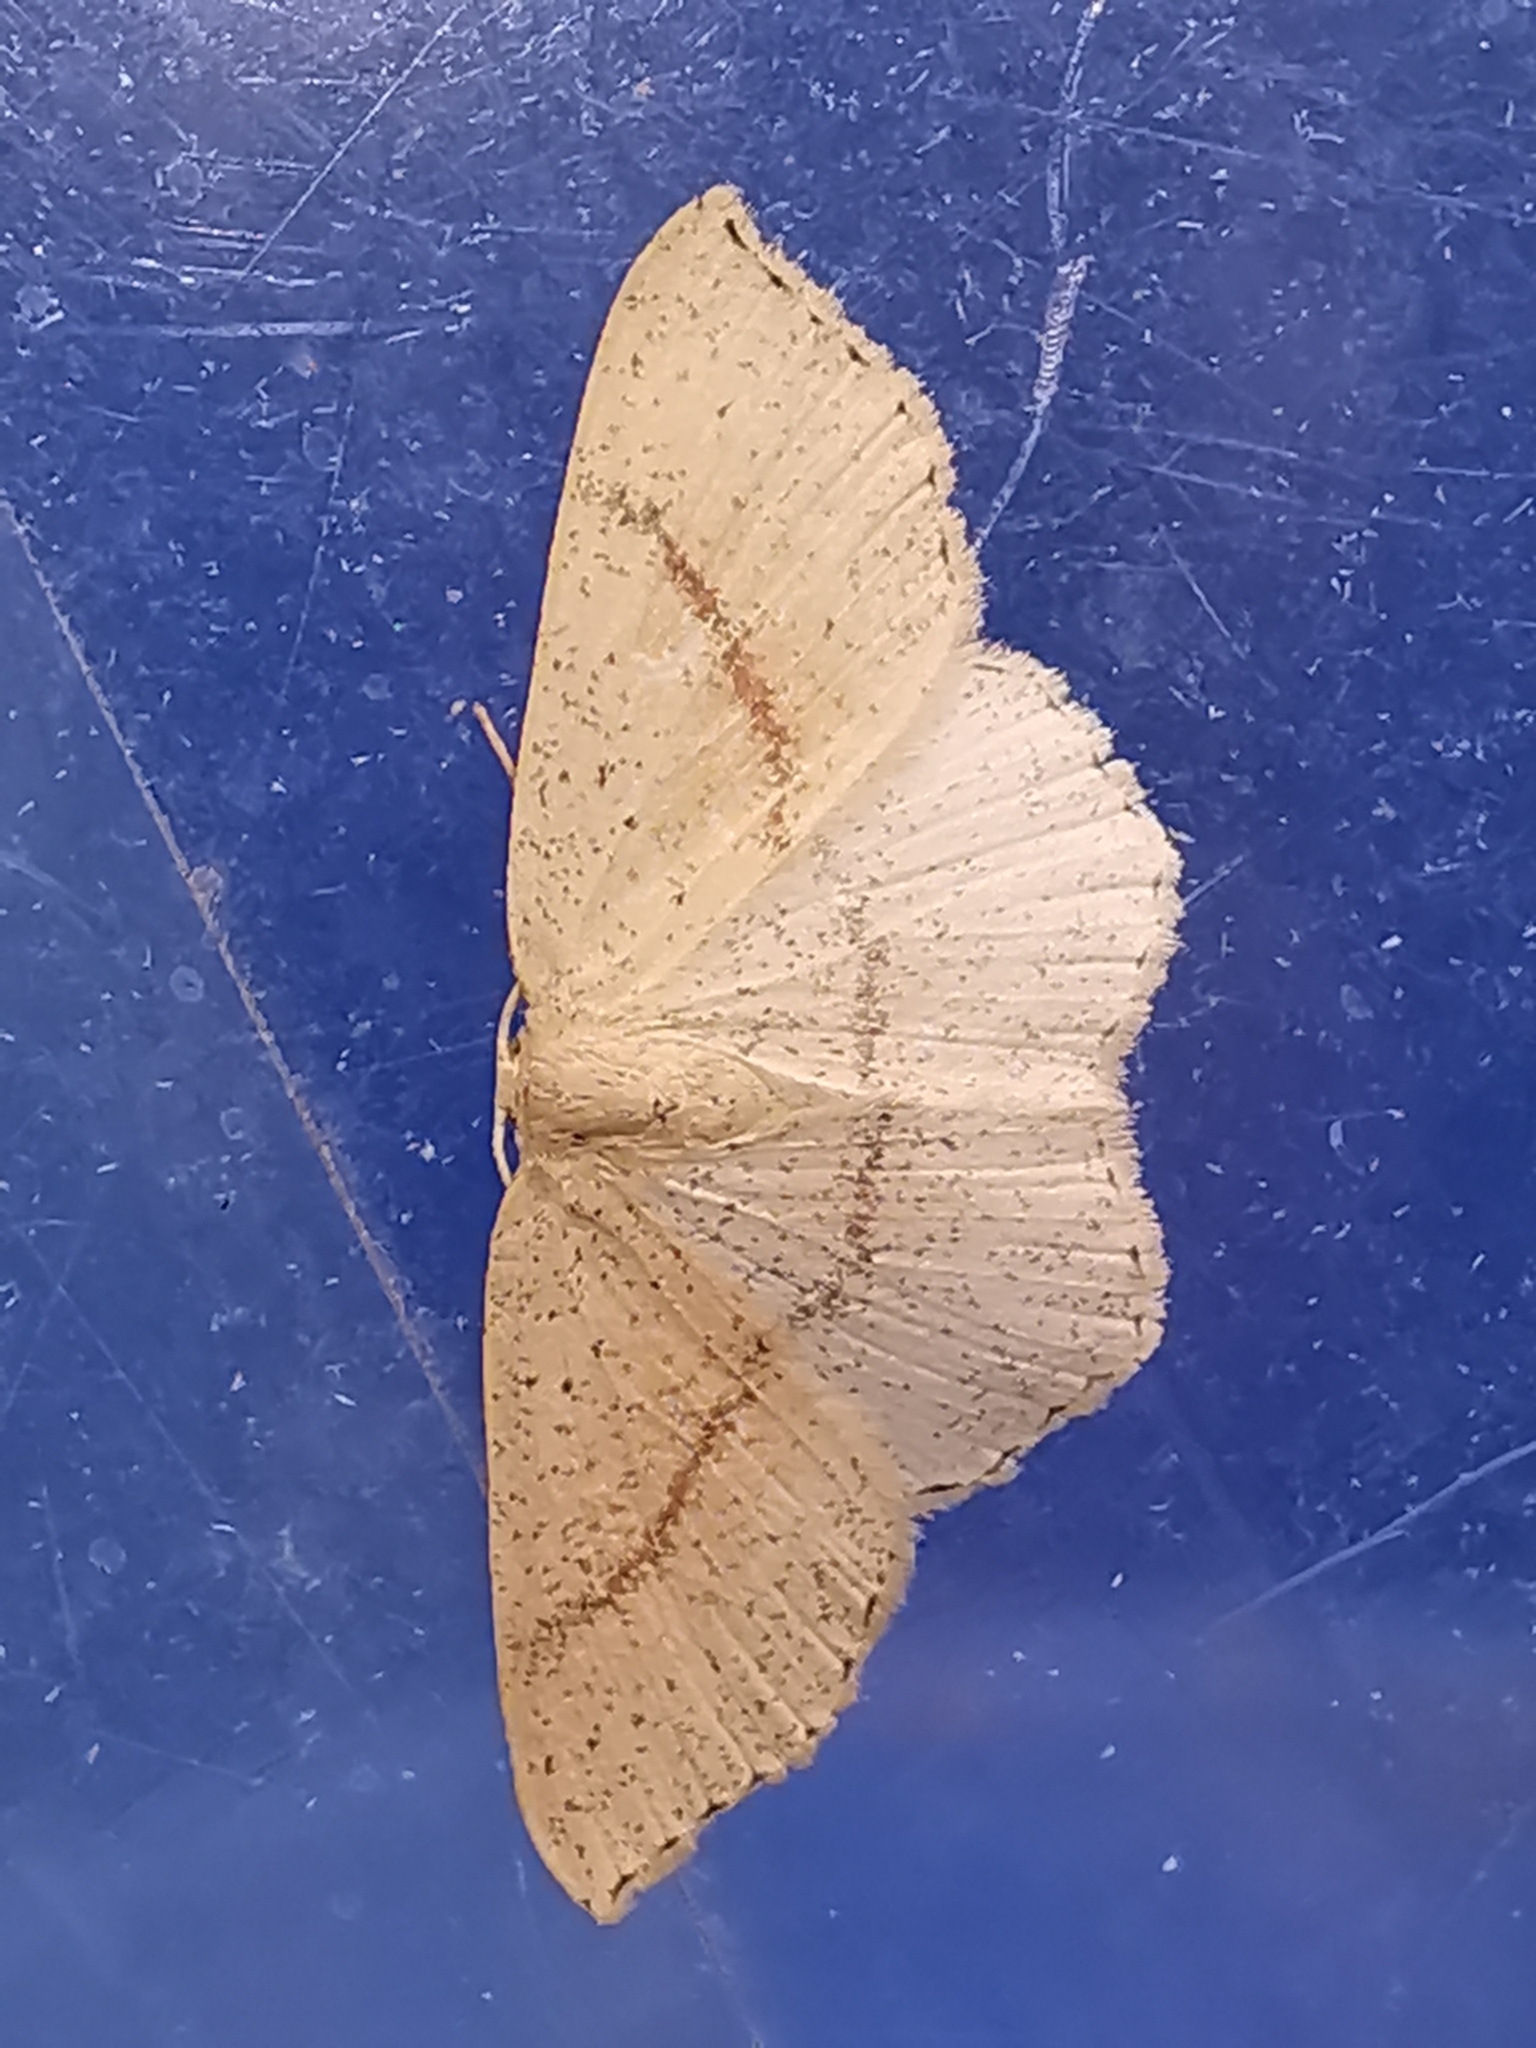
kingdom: Animalia
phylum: Arthropoda
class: Insecta
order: Lepidoptera
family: Geometridae
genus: Cyclophora
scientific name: Cyclophora punctaria
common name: Maiden's blush
